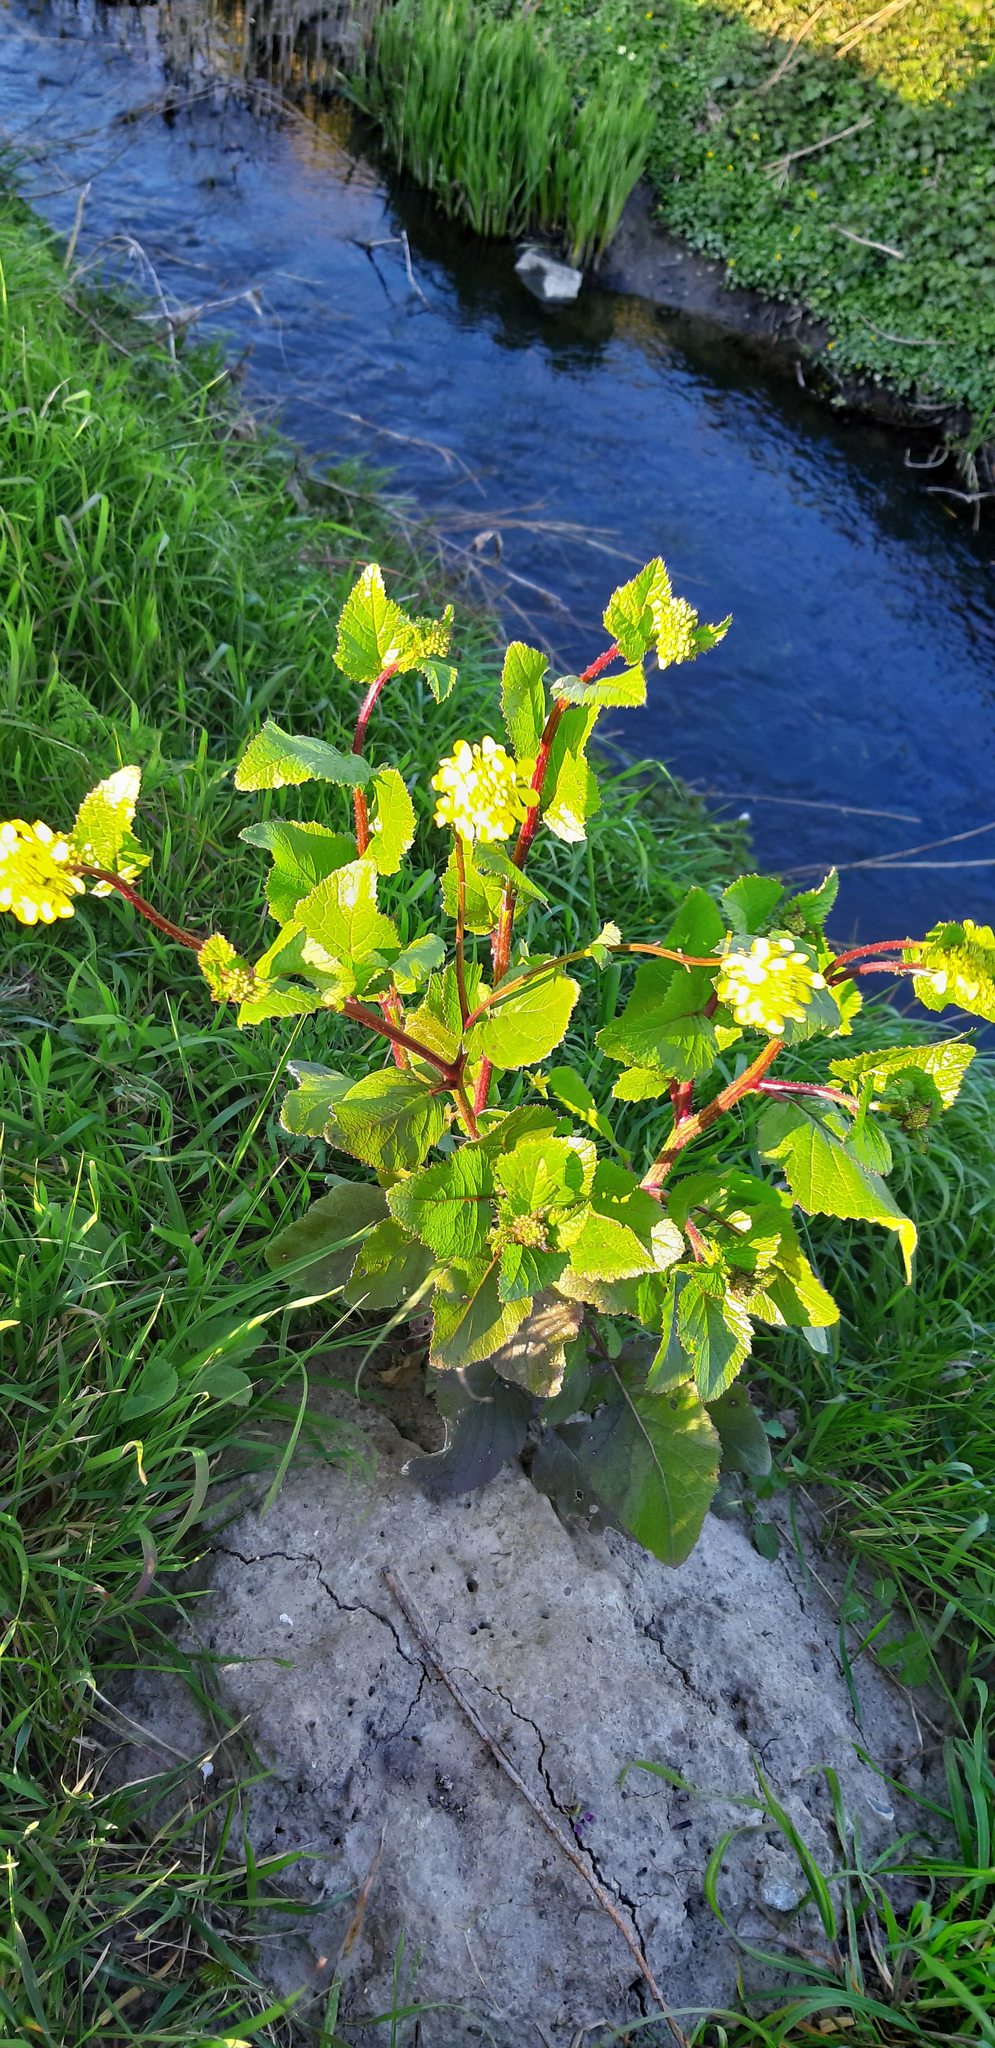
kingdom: Plantae
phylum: Tracheophyta
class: Magnoliopsida
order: Brassicales
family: Brassicaceae
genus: Sinapis
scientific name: Sinapis arvensis
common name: Charlock
